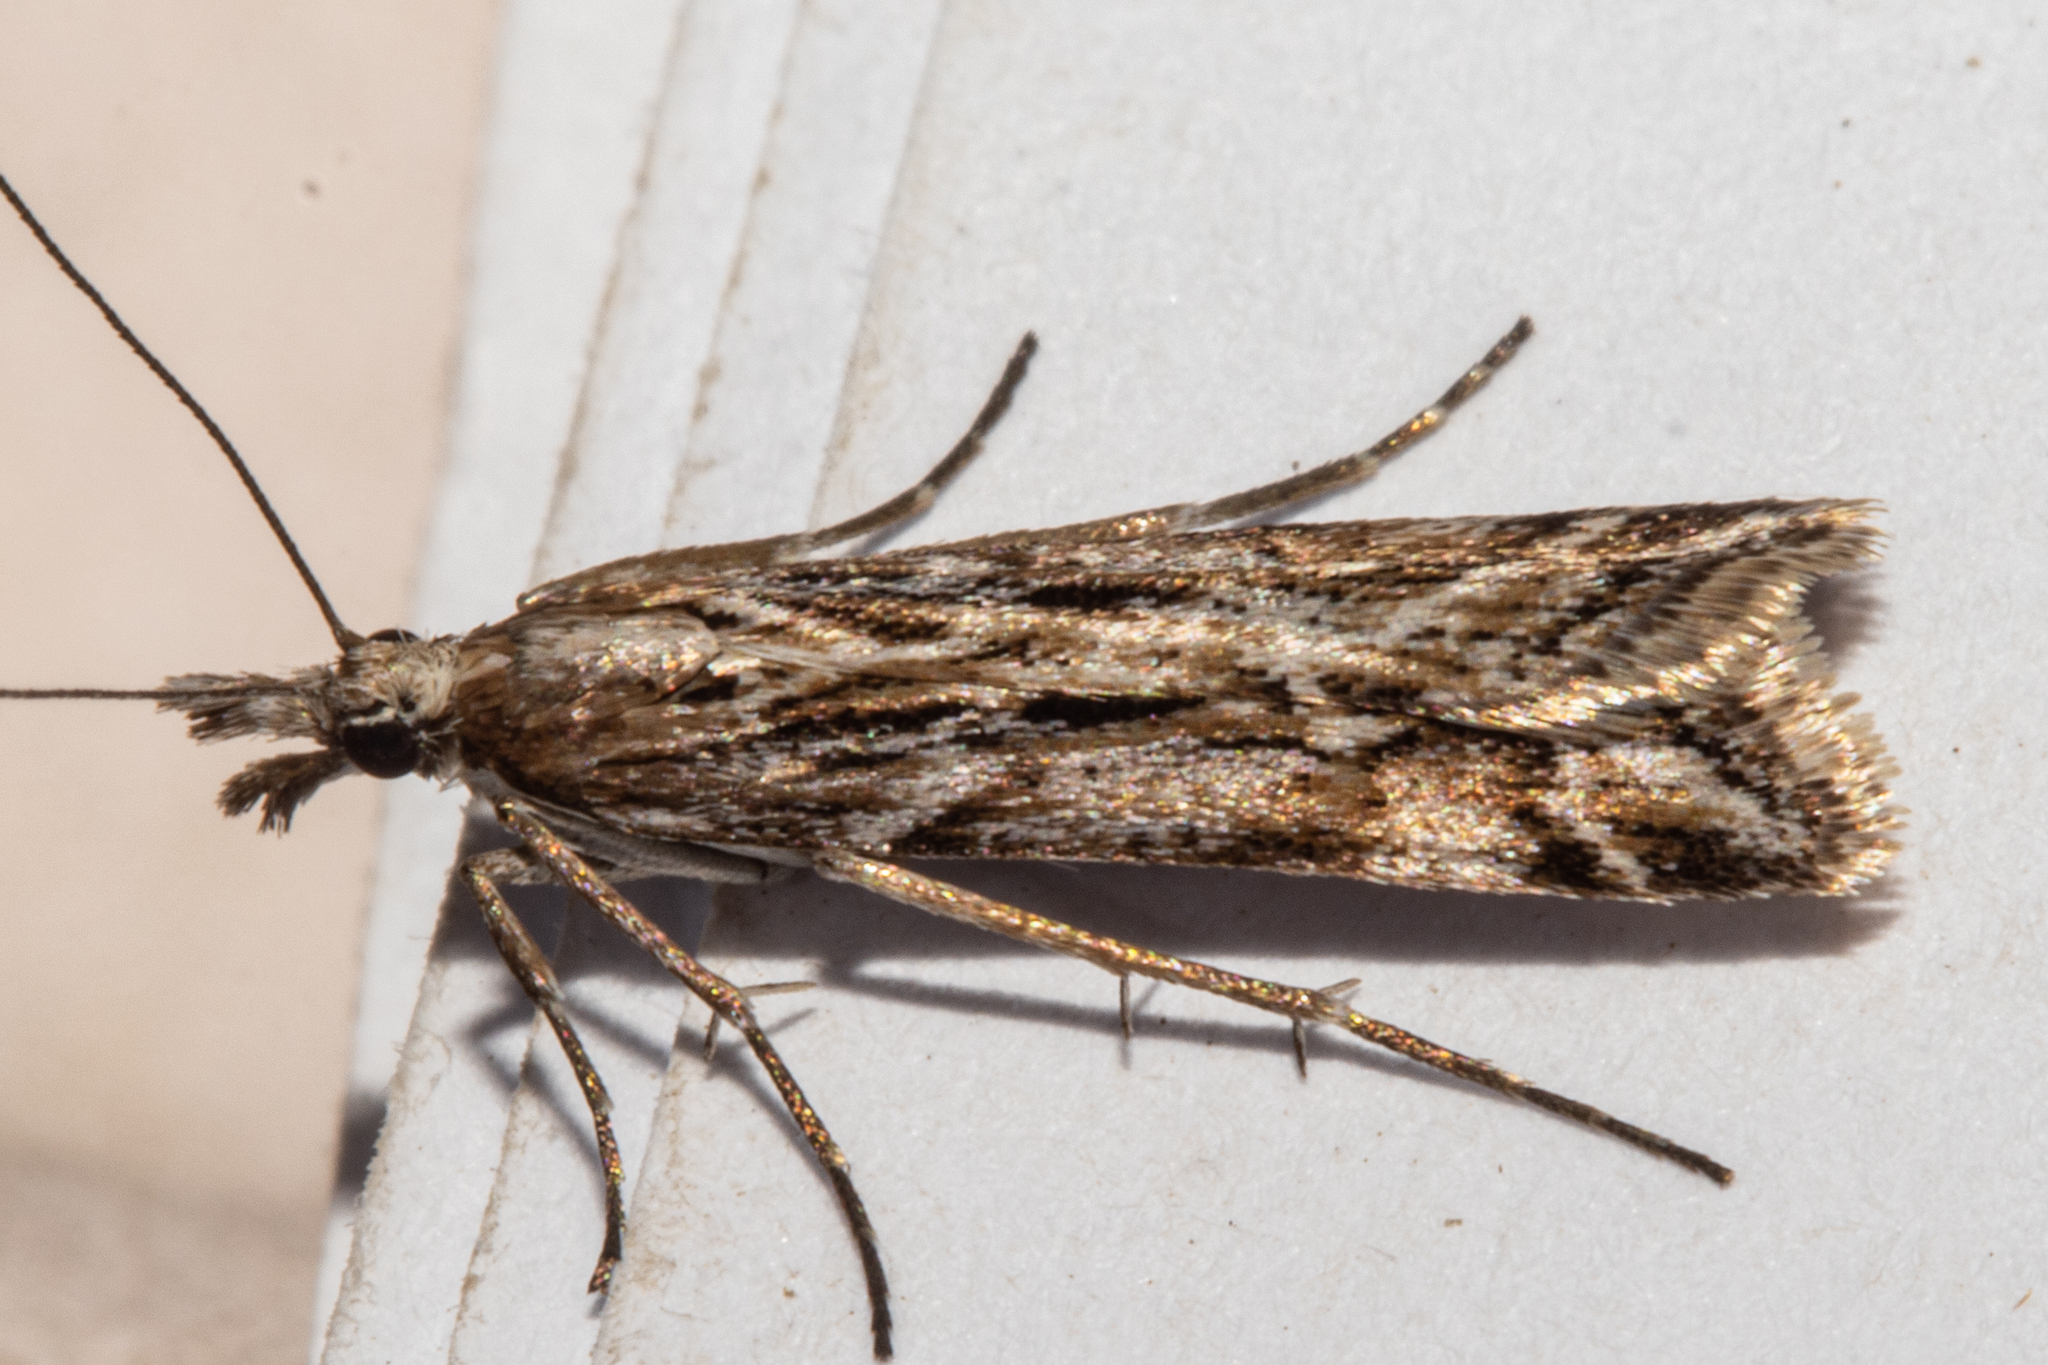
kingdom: Animalia
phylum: Arthropoda
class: Insecta
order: Lepidoptera
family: Crambidae
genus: Scoparia
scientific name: Scoparia exilis
